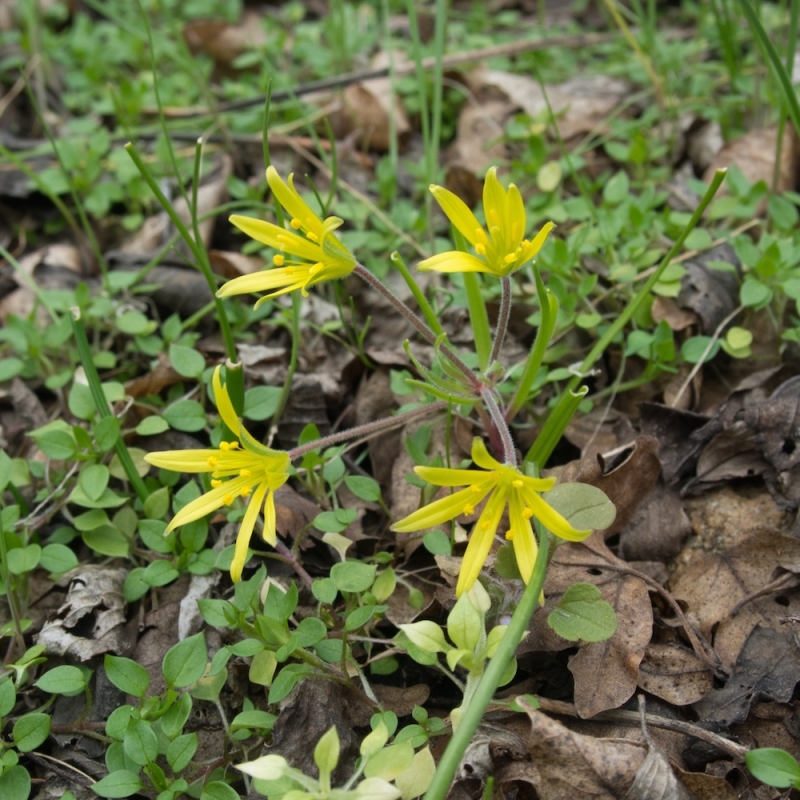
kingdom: Plantae
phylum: Tracheophyta
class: Liliopsida
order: Liliales
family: Liliaceae
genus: Gagea
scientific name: Gagea villosa
